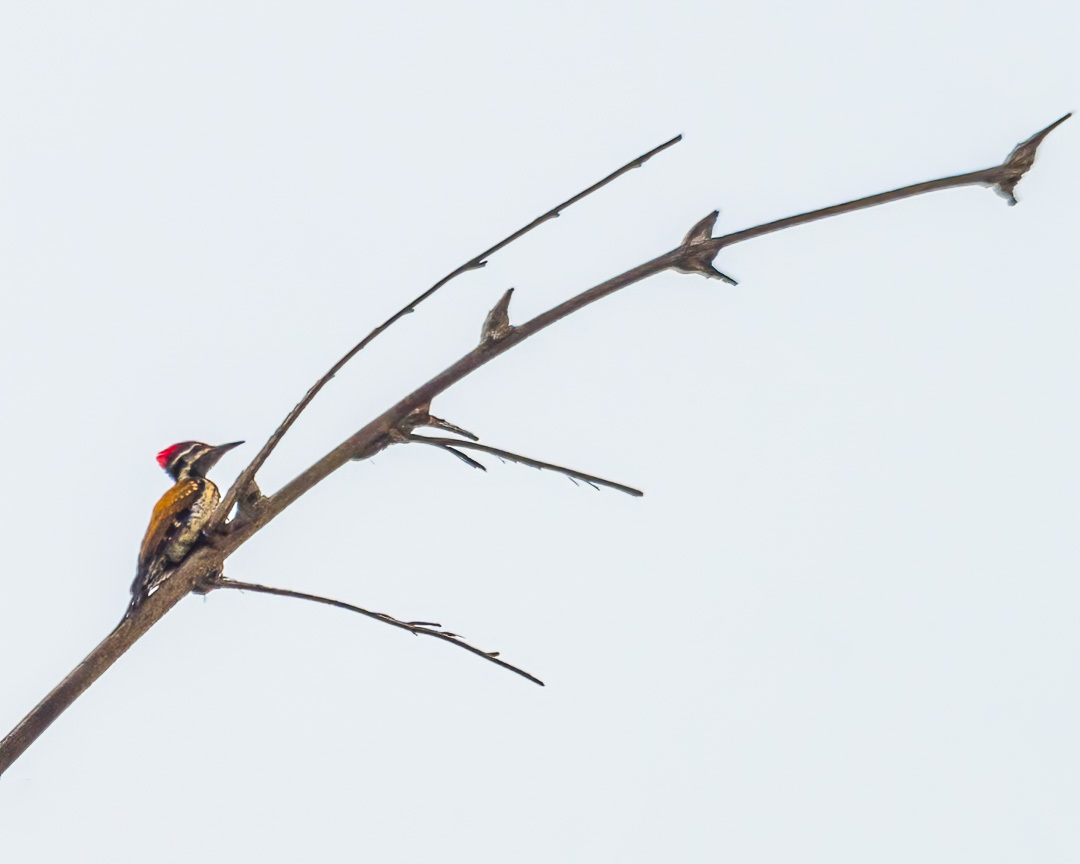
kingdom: Animalia
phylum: Chordata
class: Aves
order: Piciformes
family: Picidae
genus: Dinopium
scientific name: Dinopium benghalense
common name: Black-rumped flameback
